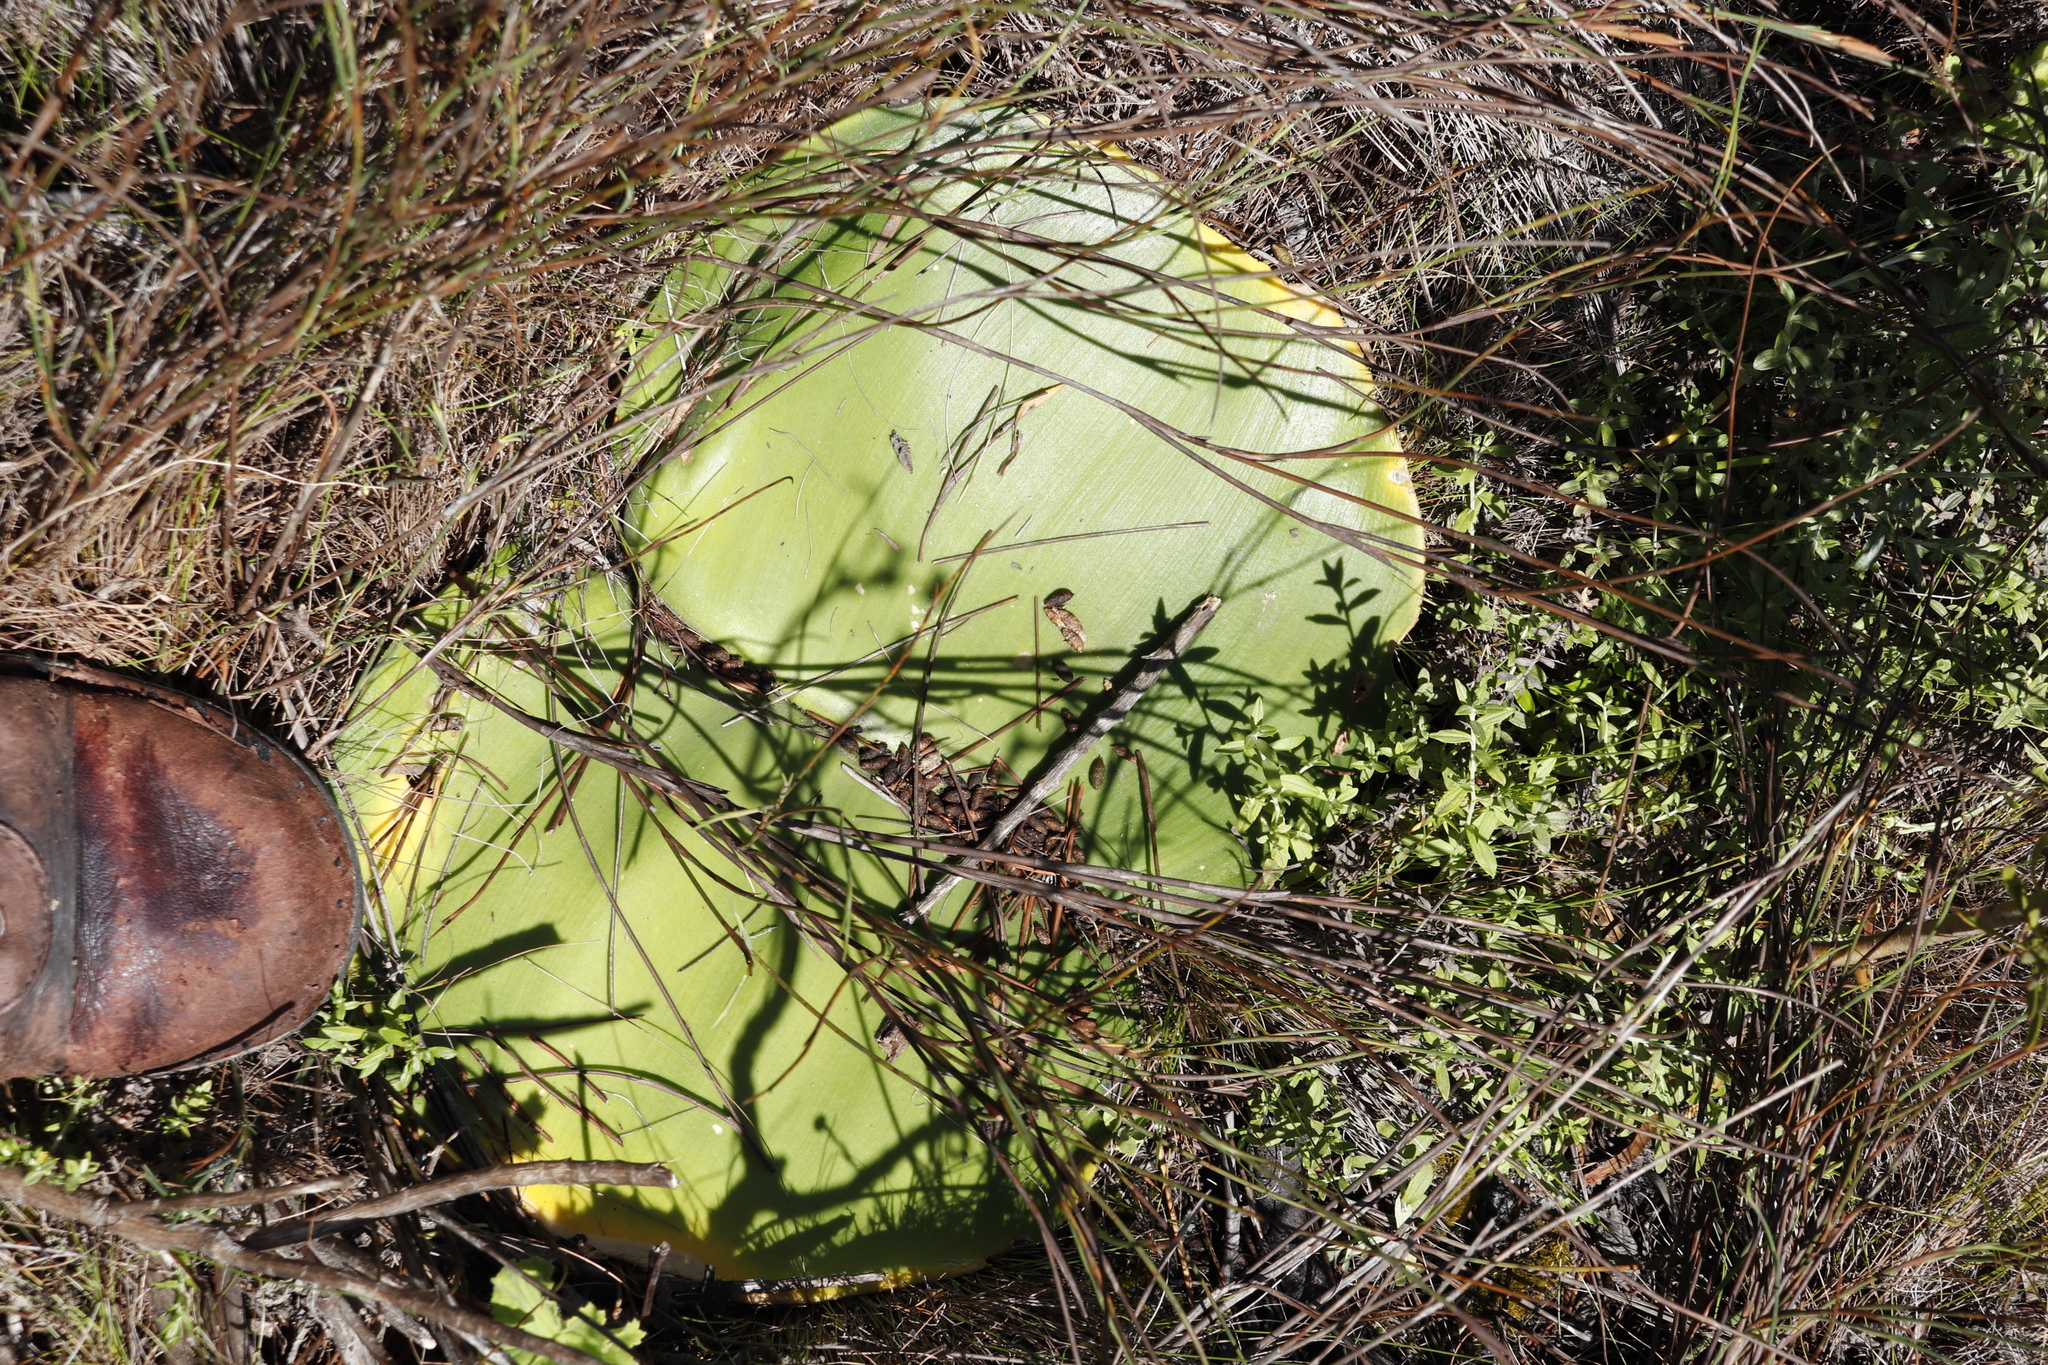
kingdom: Plantae
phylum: Tracheophyta
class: Liliopsida
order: Asparagales
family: Amaryllidaceae
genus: Haemanthus
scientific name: Haemanthus sanguineus
